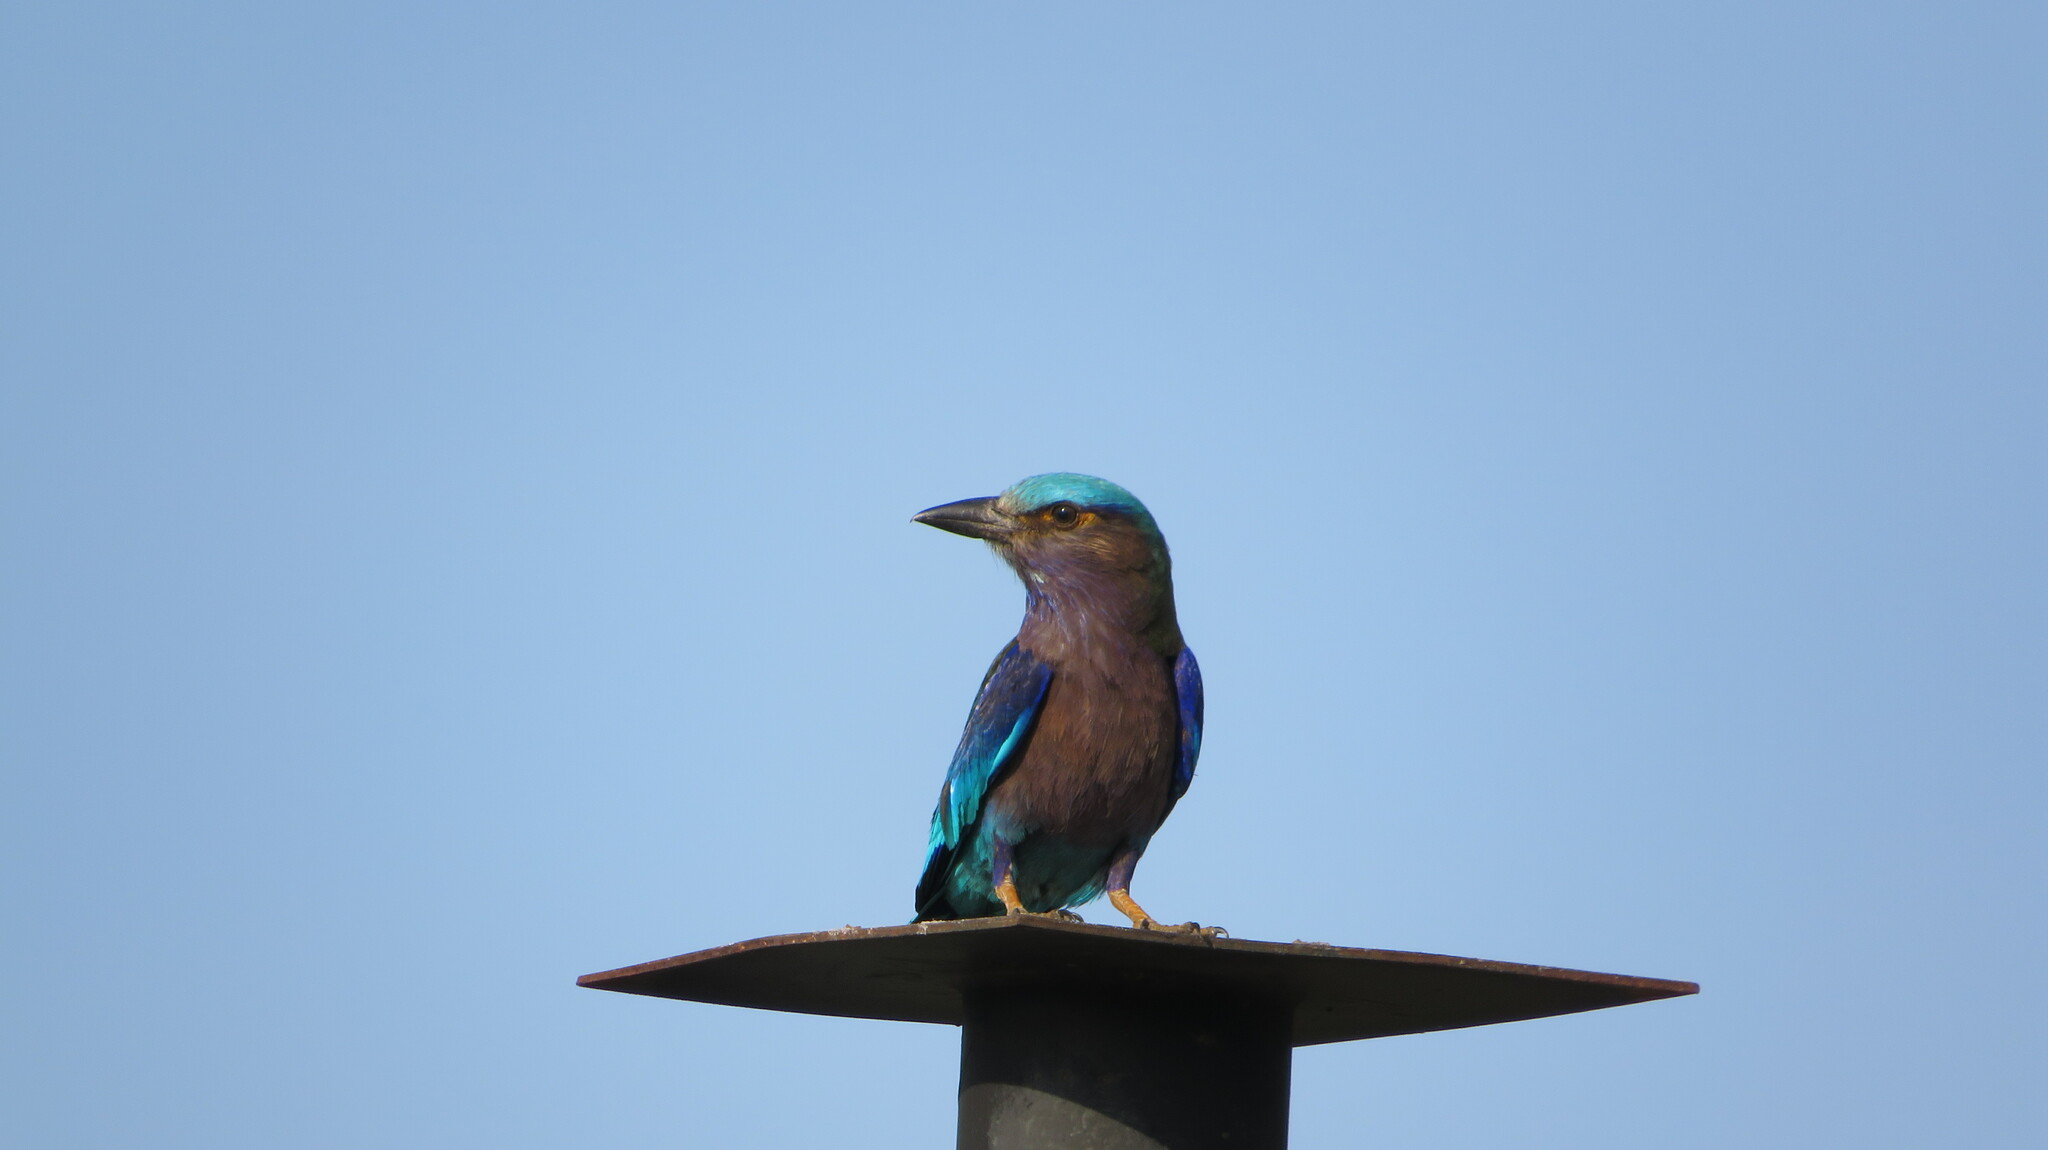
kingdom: Animalia
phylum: Chordata
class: Aves
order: Coraciiformes
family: Coraciidae
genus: Coracias
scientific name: Coracias affinis
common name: Indochinese roller
